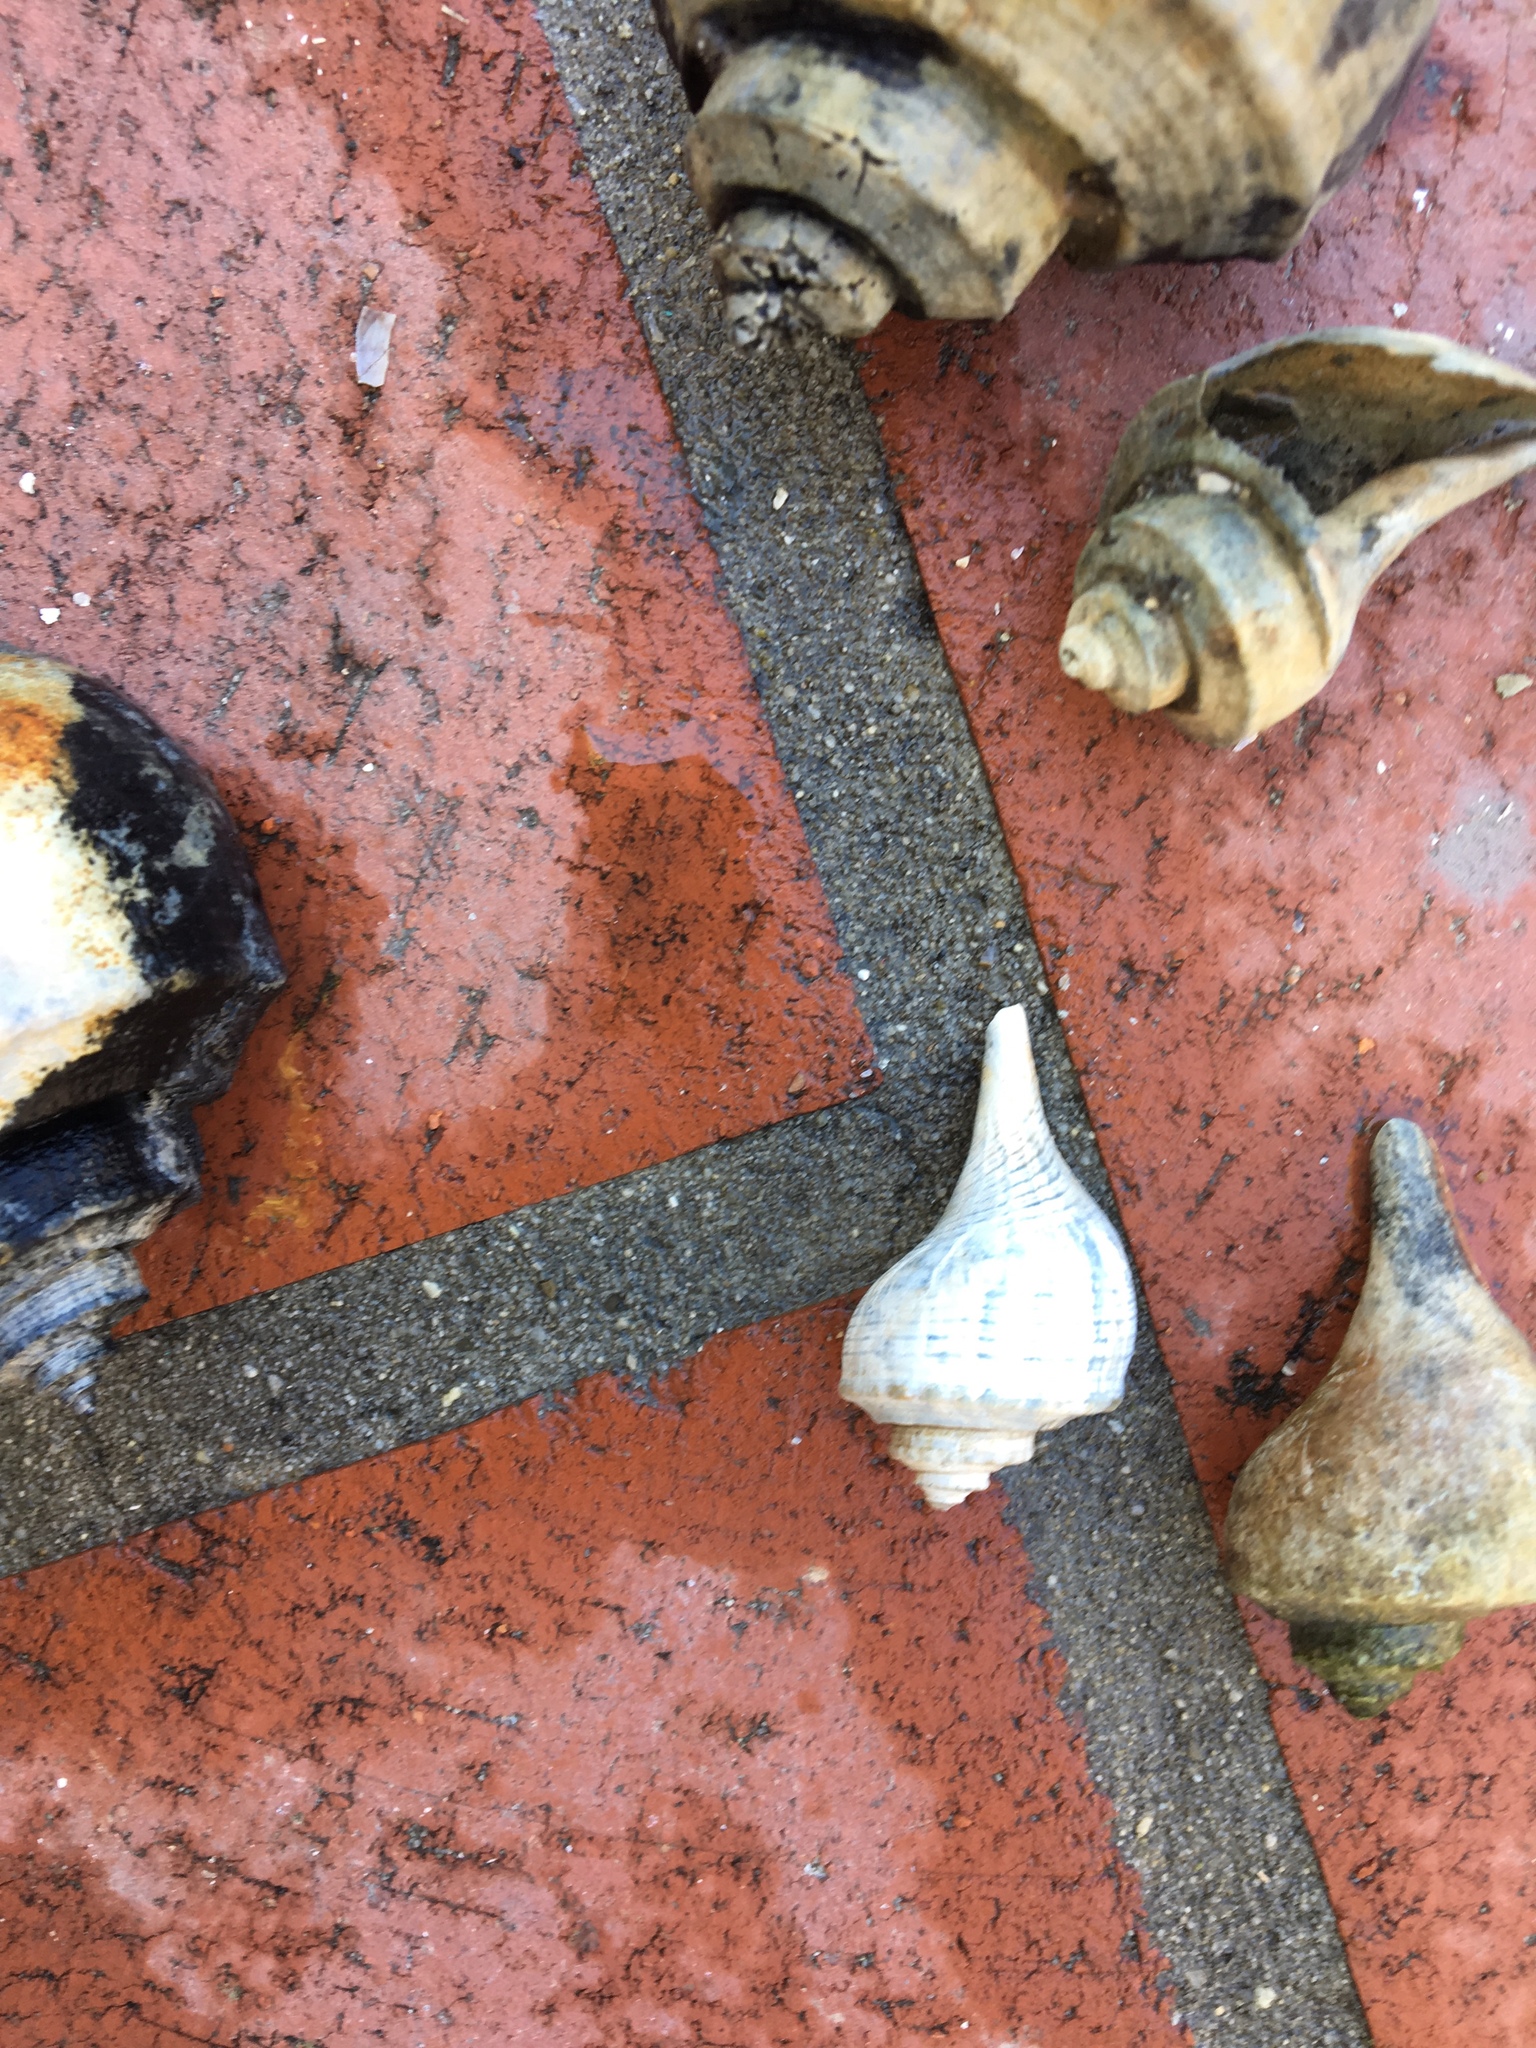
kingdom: Animalia
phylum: Mollusca
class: Gastropoda
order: Neogastropoda
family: Busyconidae
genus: Busycotypus
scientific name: Busycotypus canaliculatus
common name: Channeled whelk
